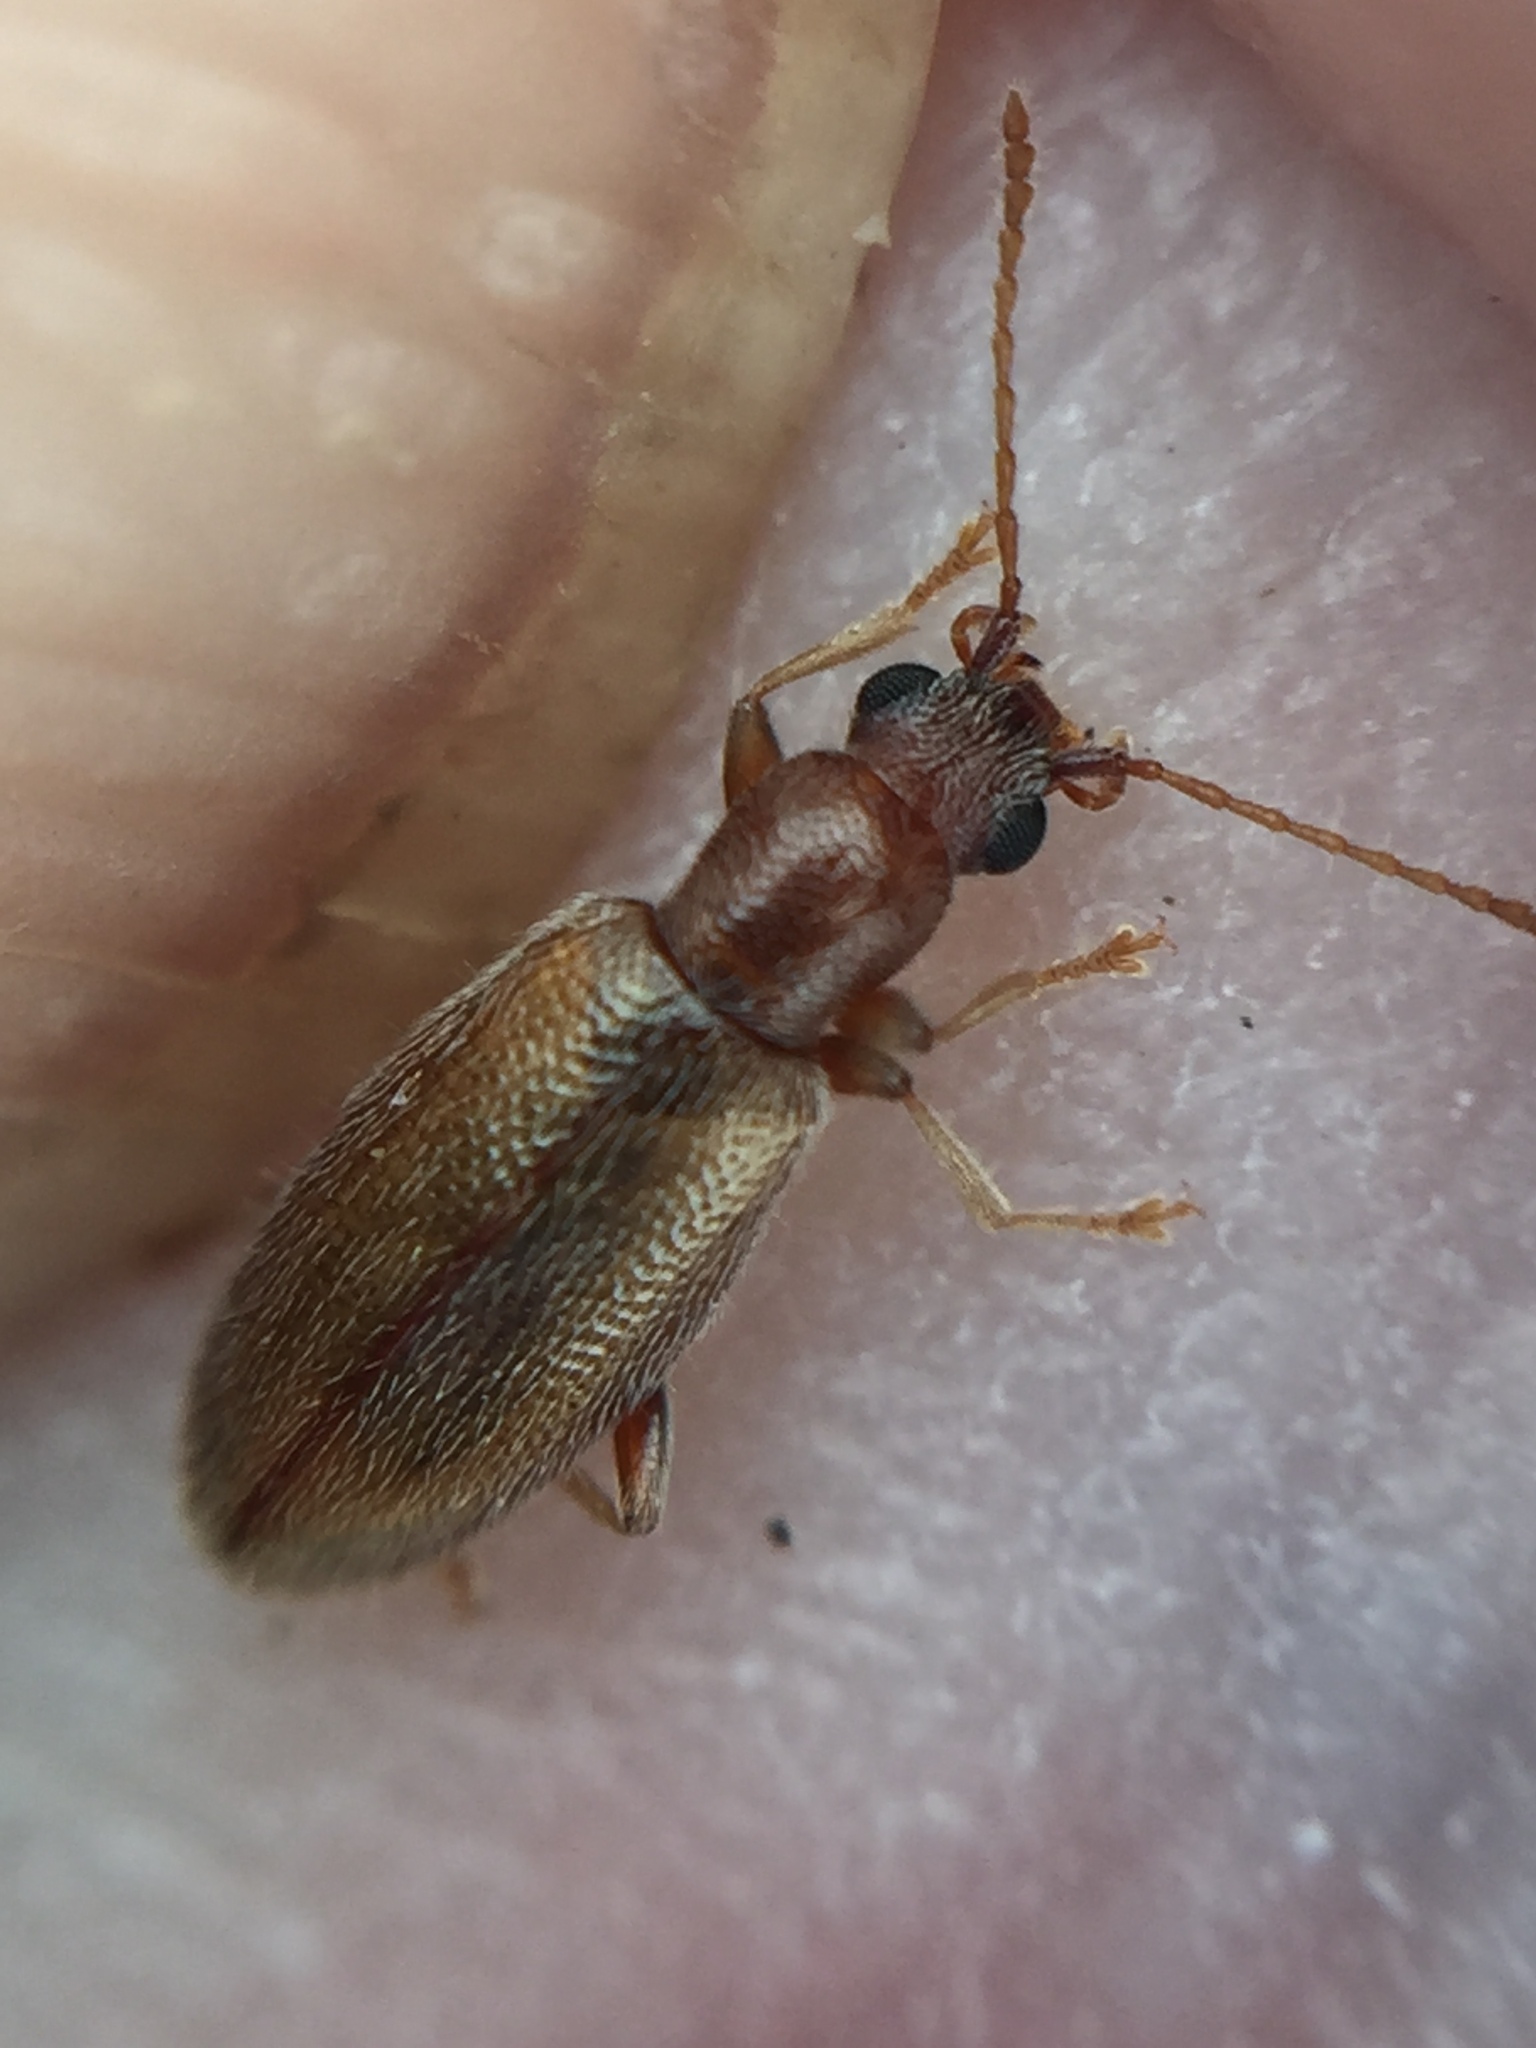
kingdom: Animalia
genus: Lagrioda
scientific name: Lagrioda brounii
